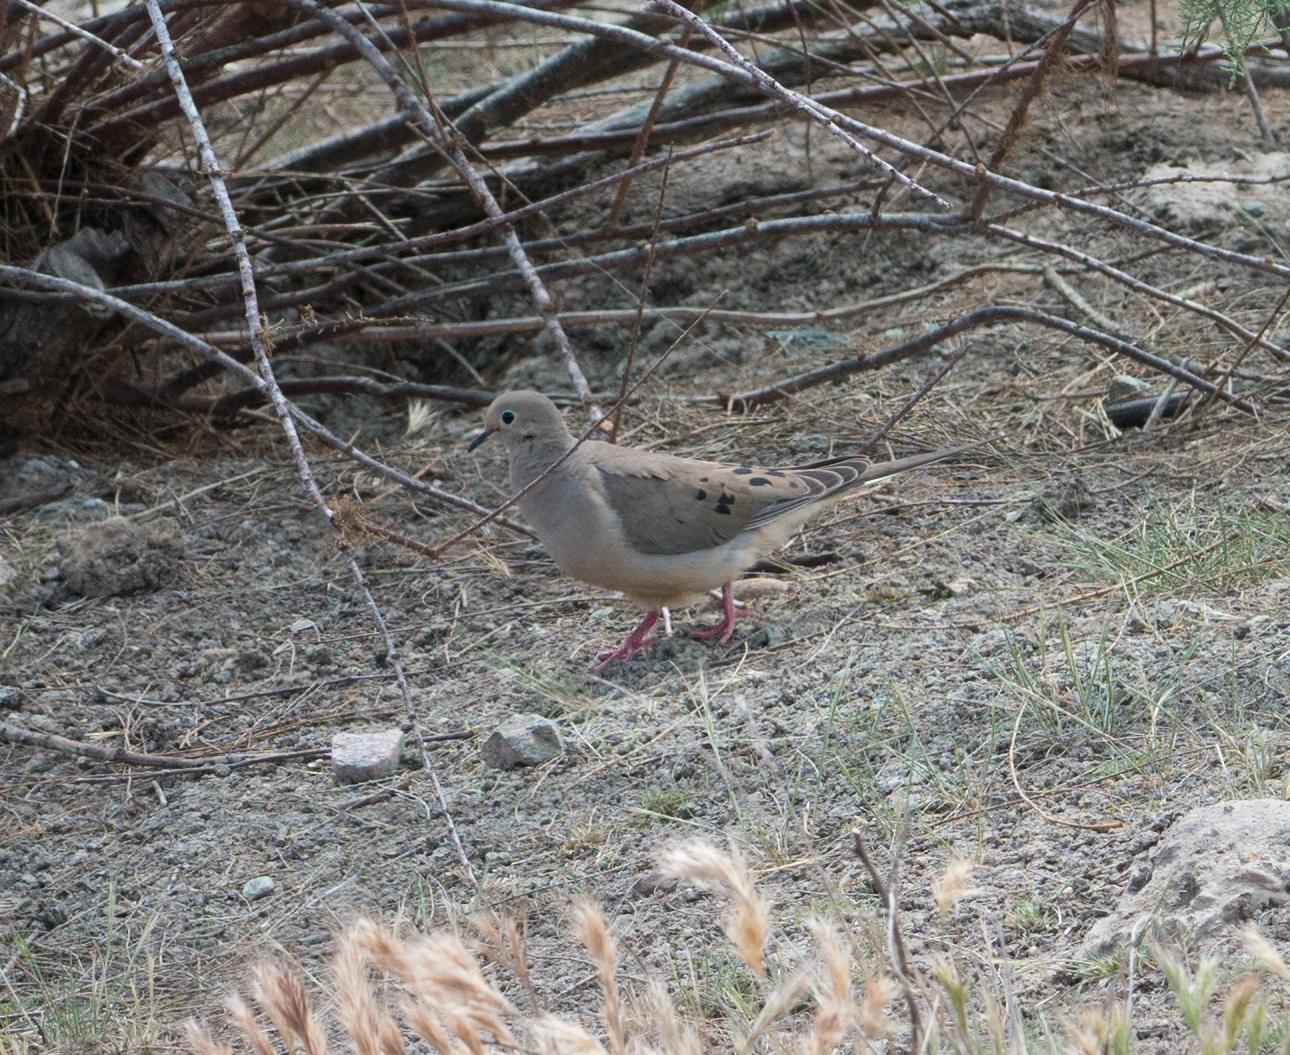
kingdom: Animalia
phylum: Chordata
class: Aves
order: Columbiformes
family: Columbidae
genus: Zenaida
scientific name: Zenaida macroura
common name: Mourning dove
